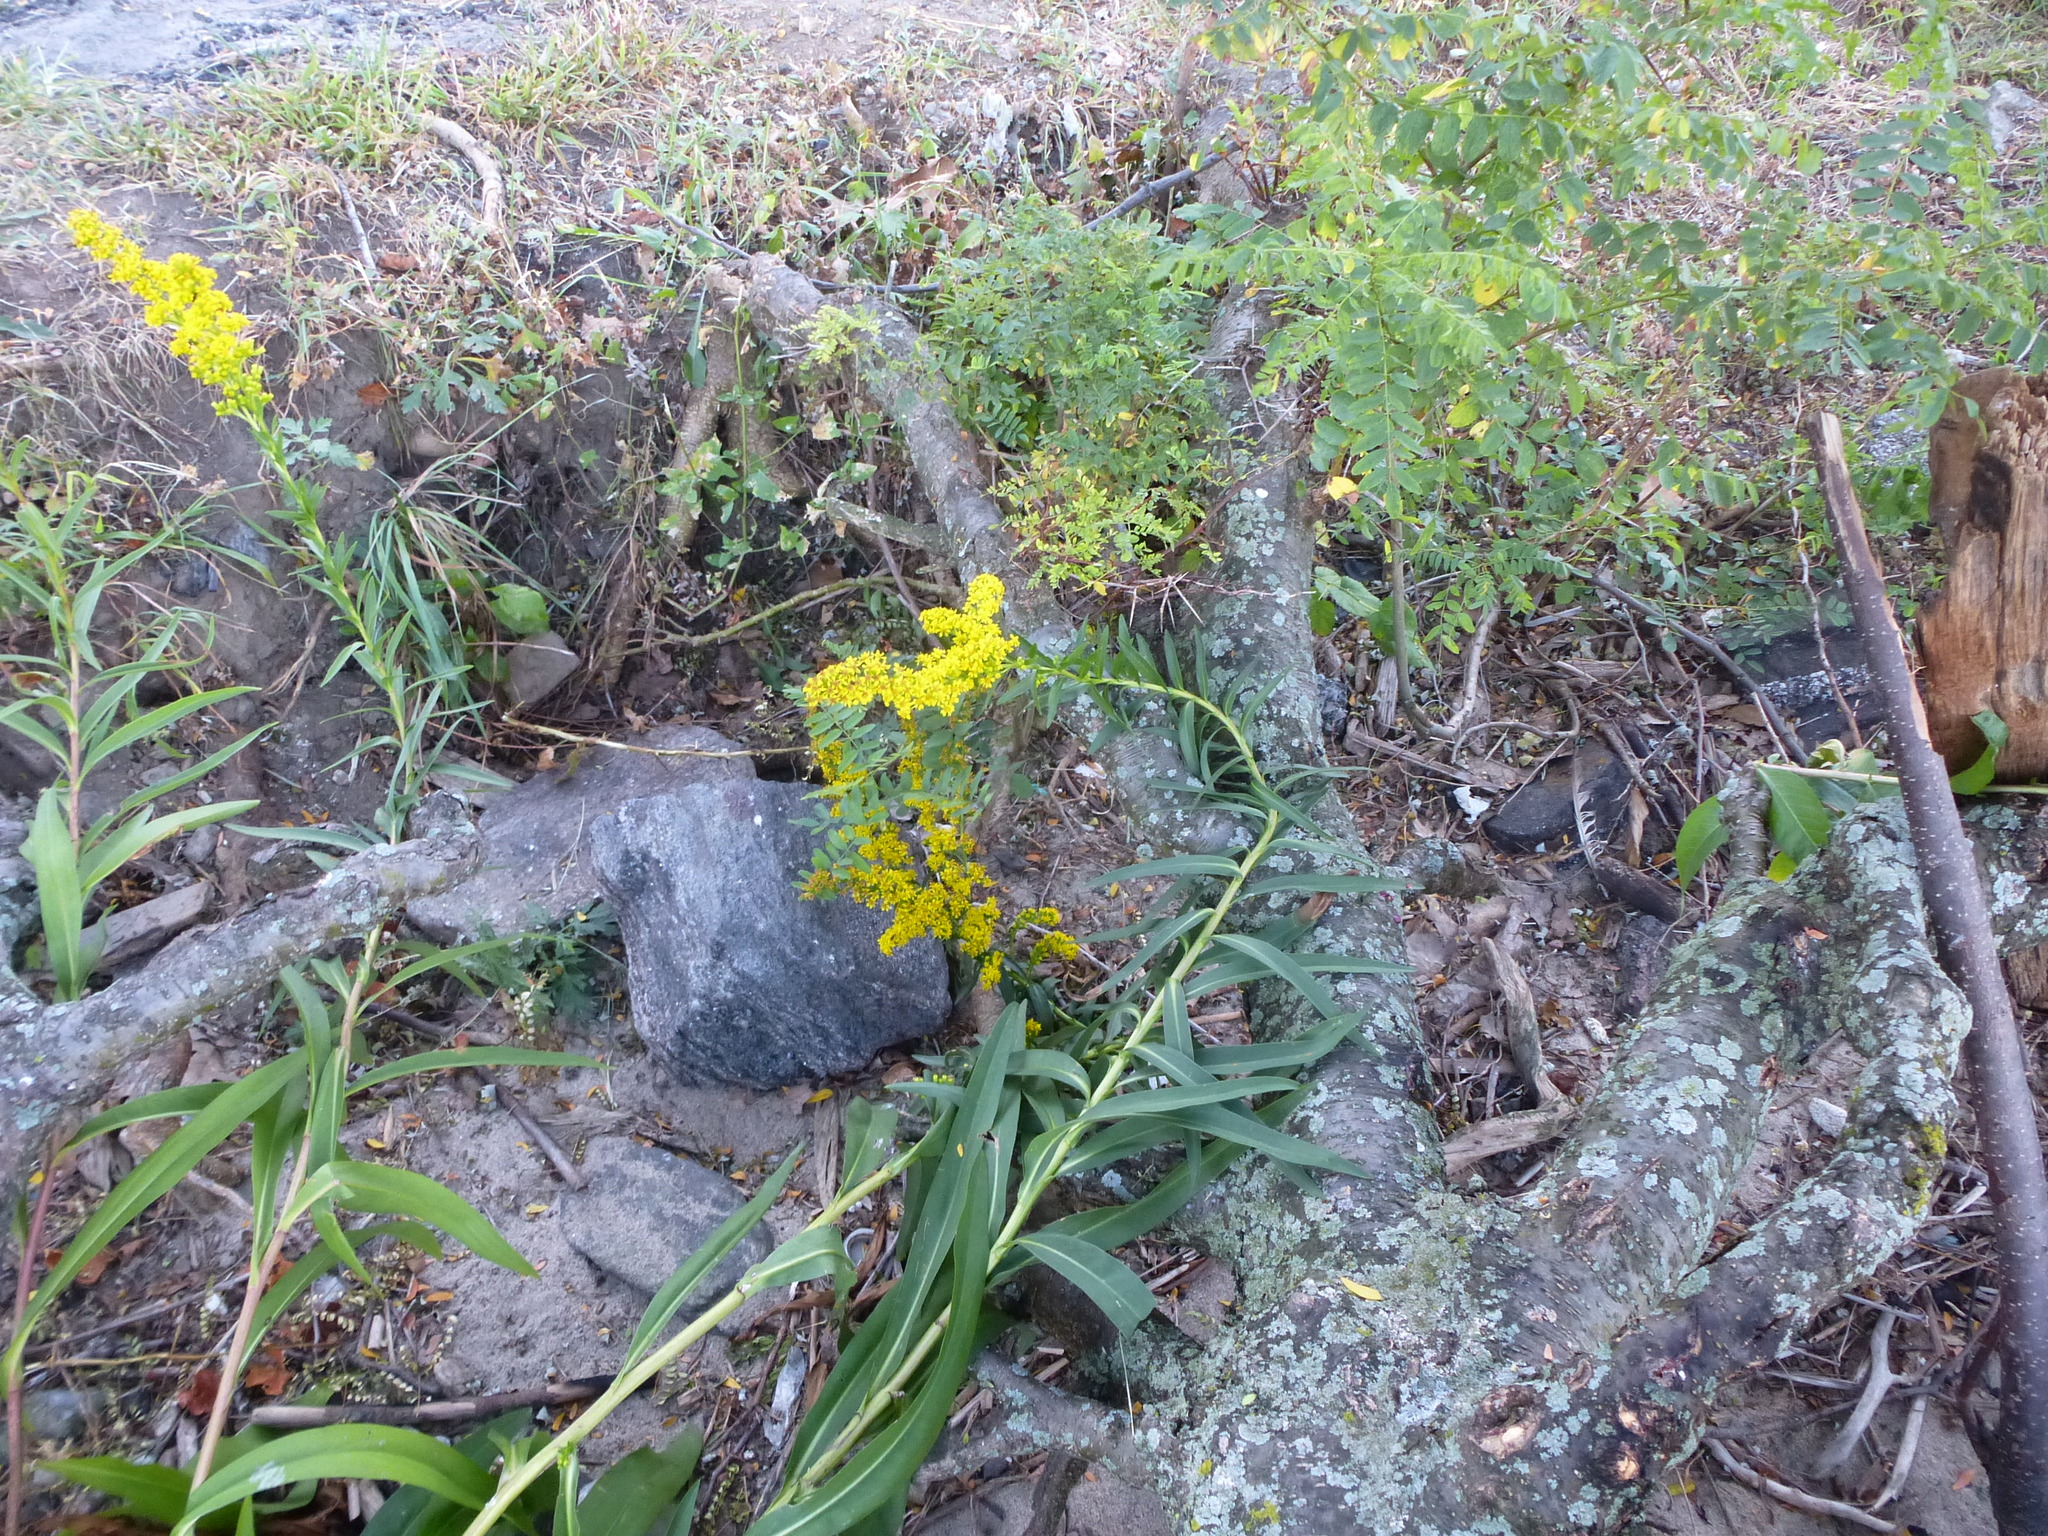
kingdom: Plantae
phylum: Tracheophyta
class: Magnoliopsida
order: Asterales
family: Asteraceae
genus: Solidago
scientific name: Solidago sempervirens
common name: Salt-marsh goldenrod
